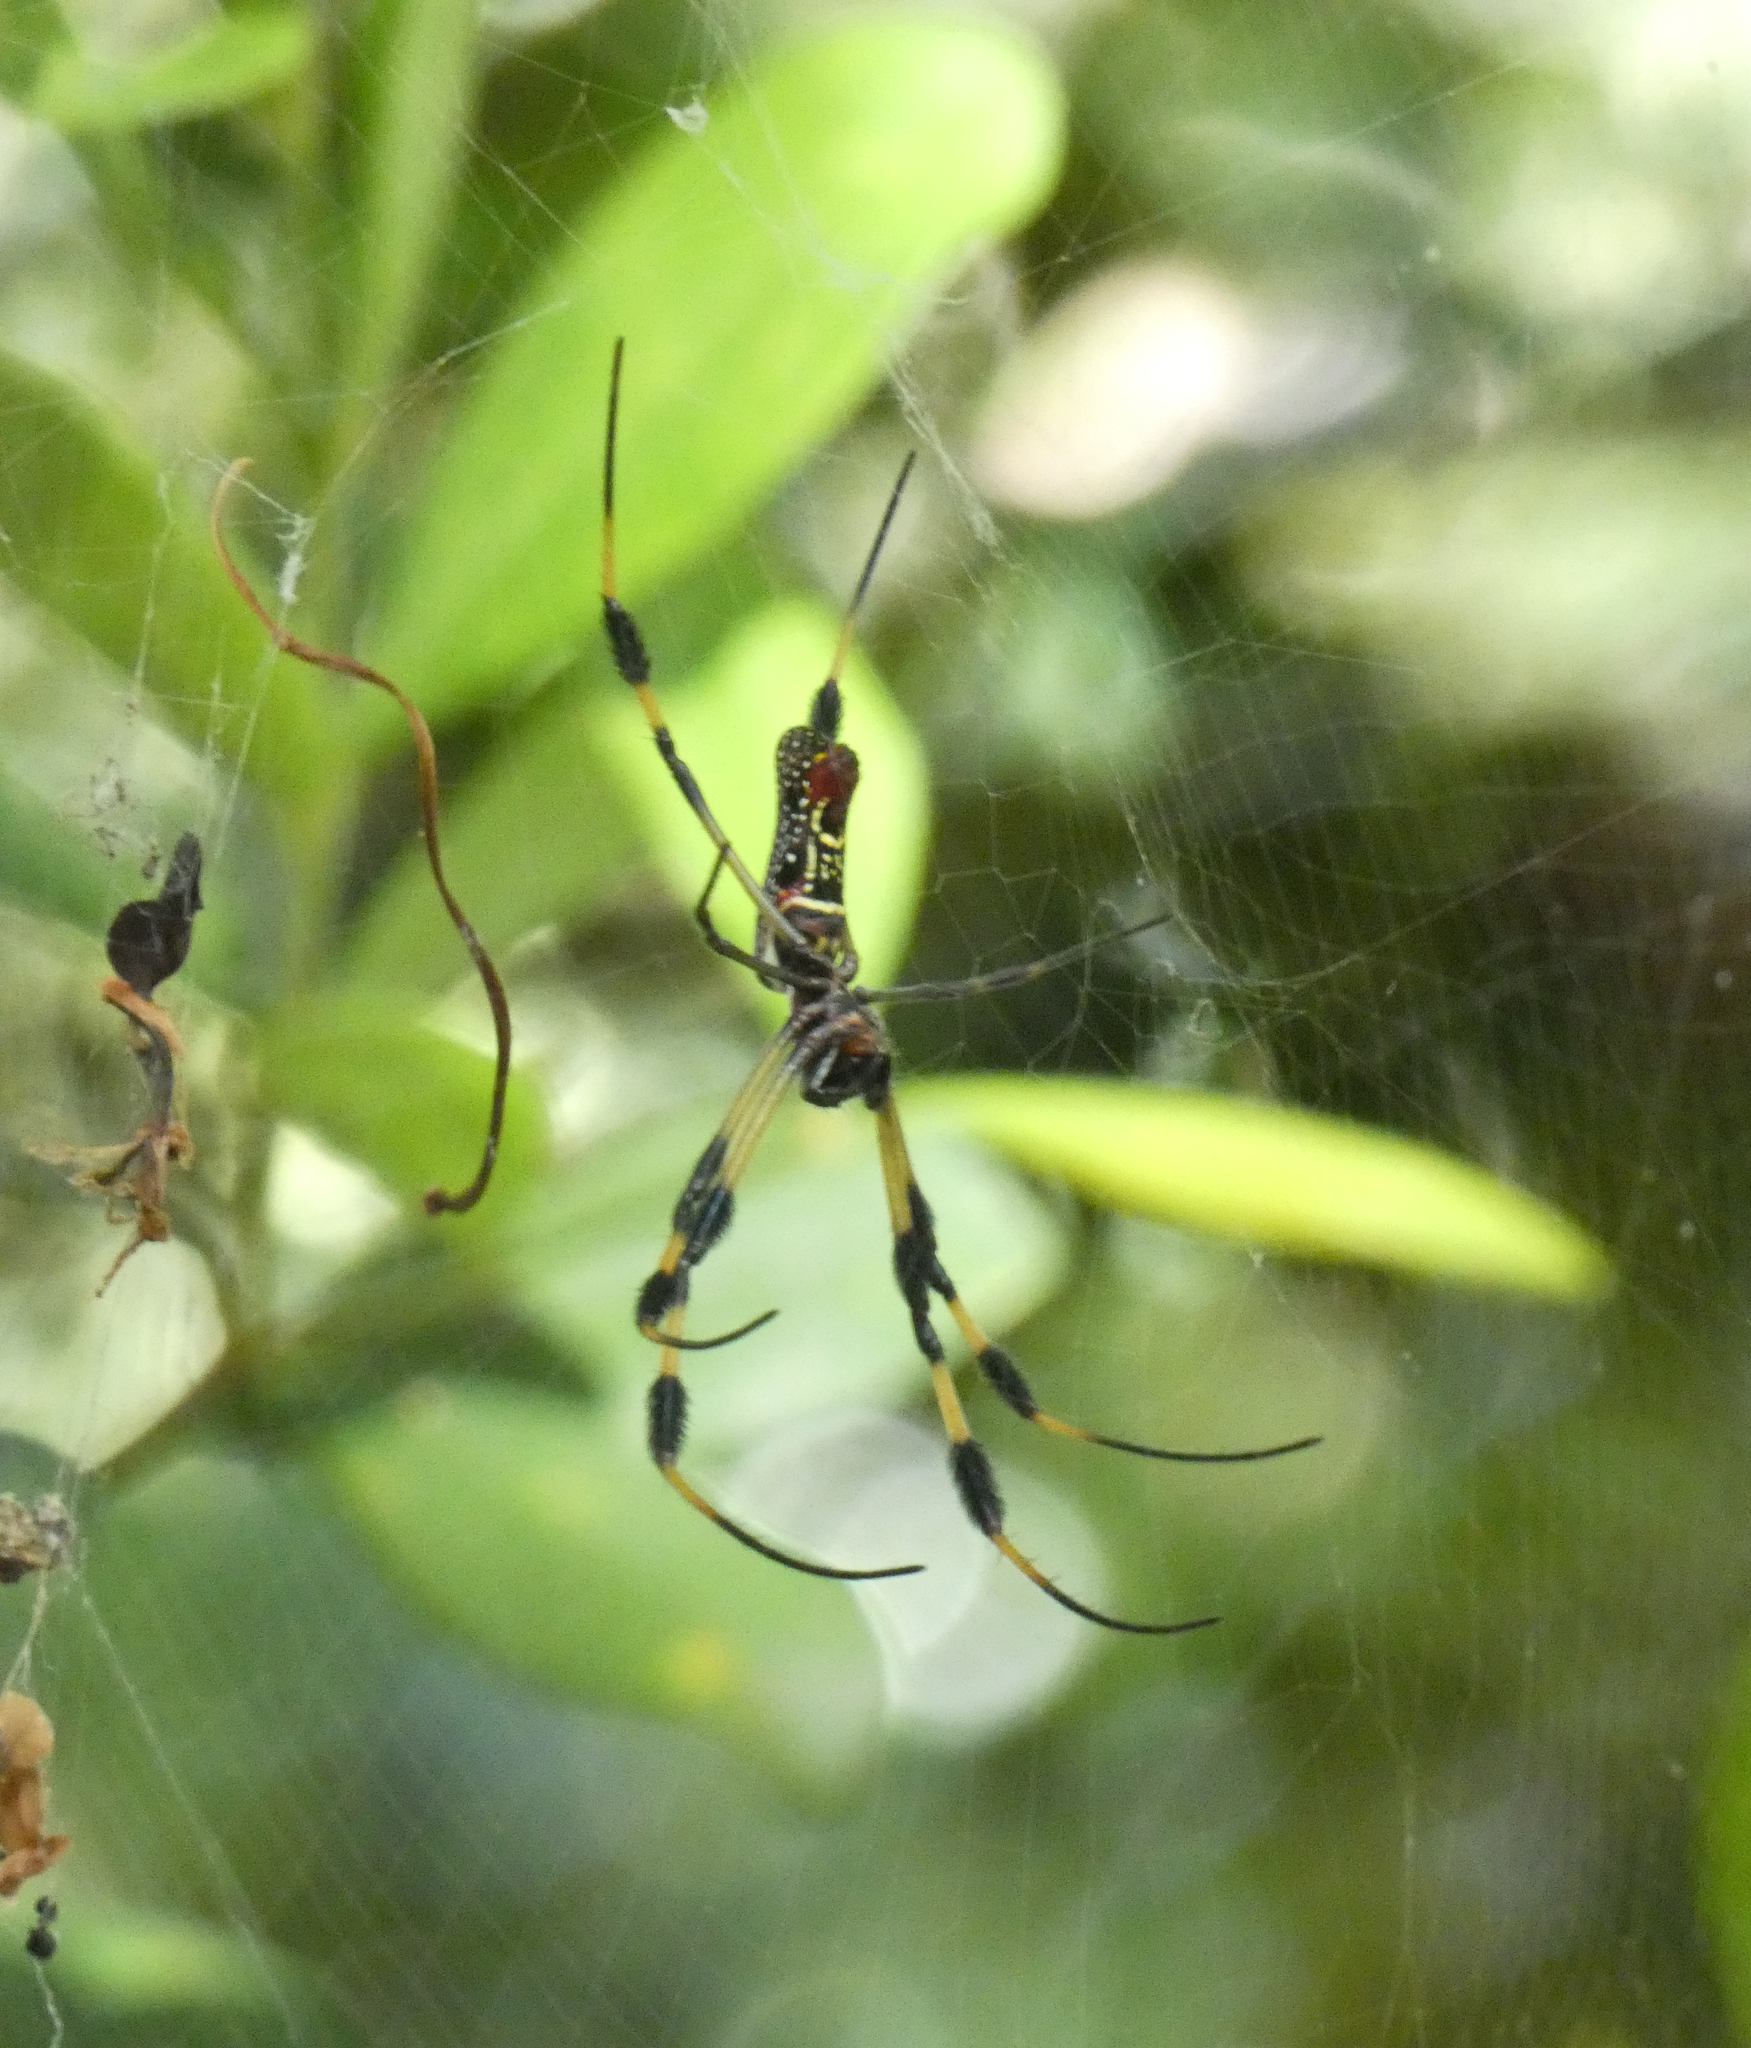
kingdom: Animalia
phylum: Arthropoda
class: Arachnida
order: Araneae
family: Araneidae
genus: Trichonephila
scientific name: Trichonephila clavipes
